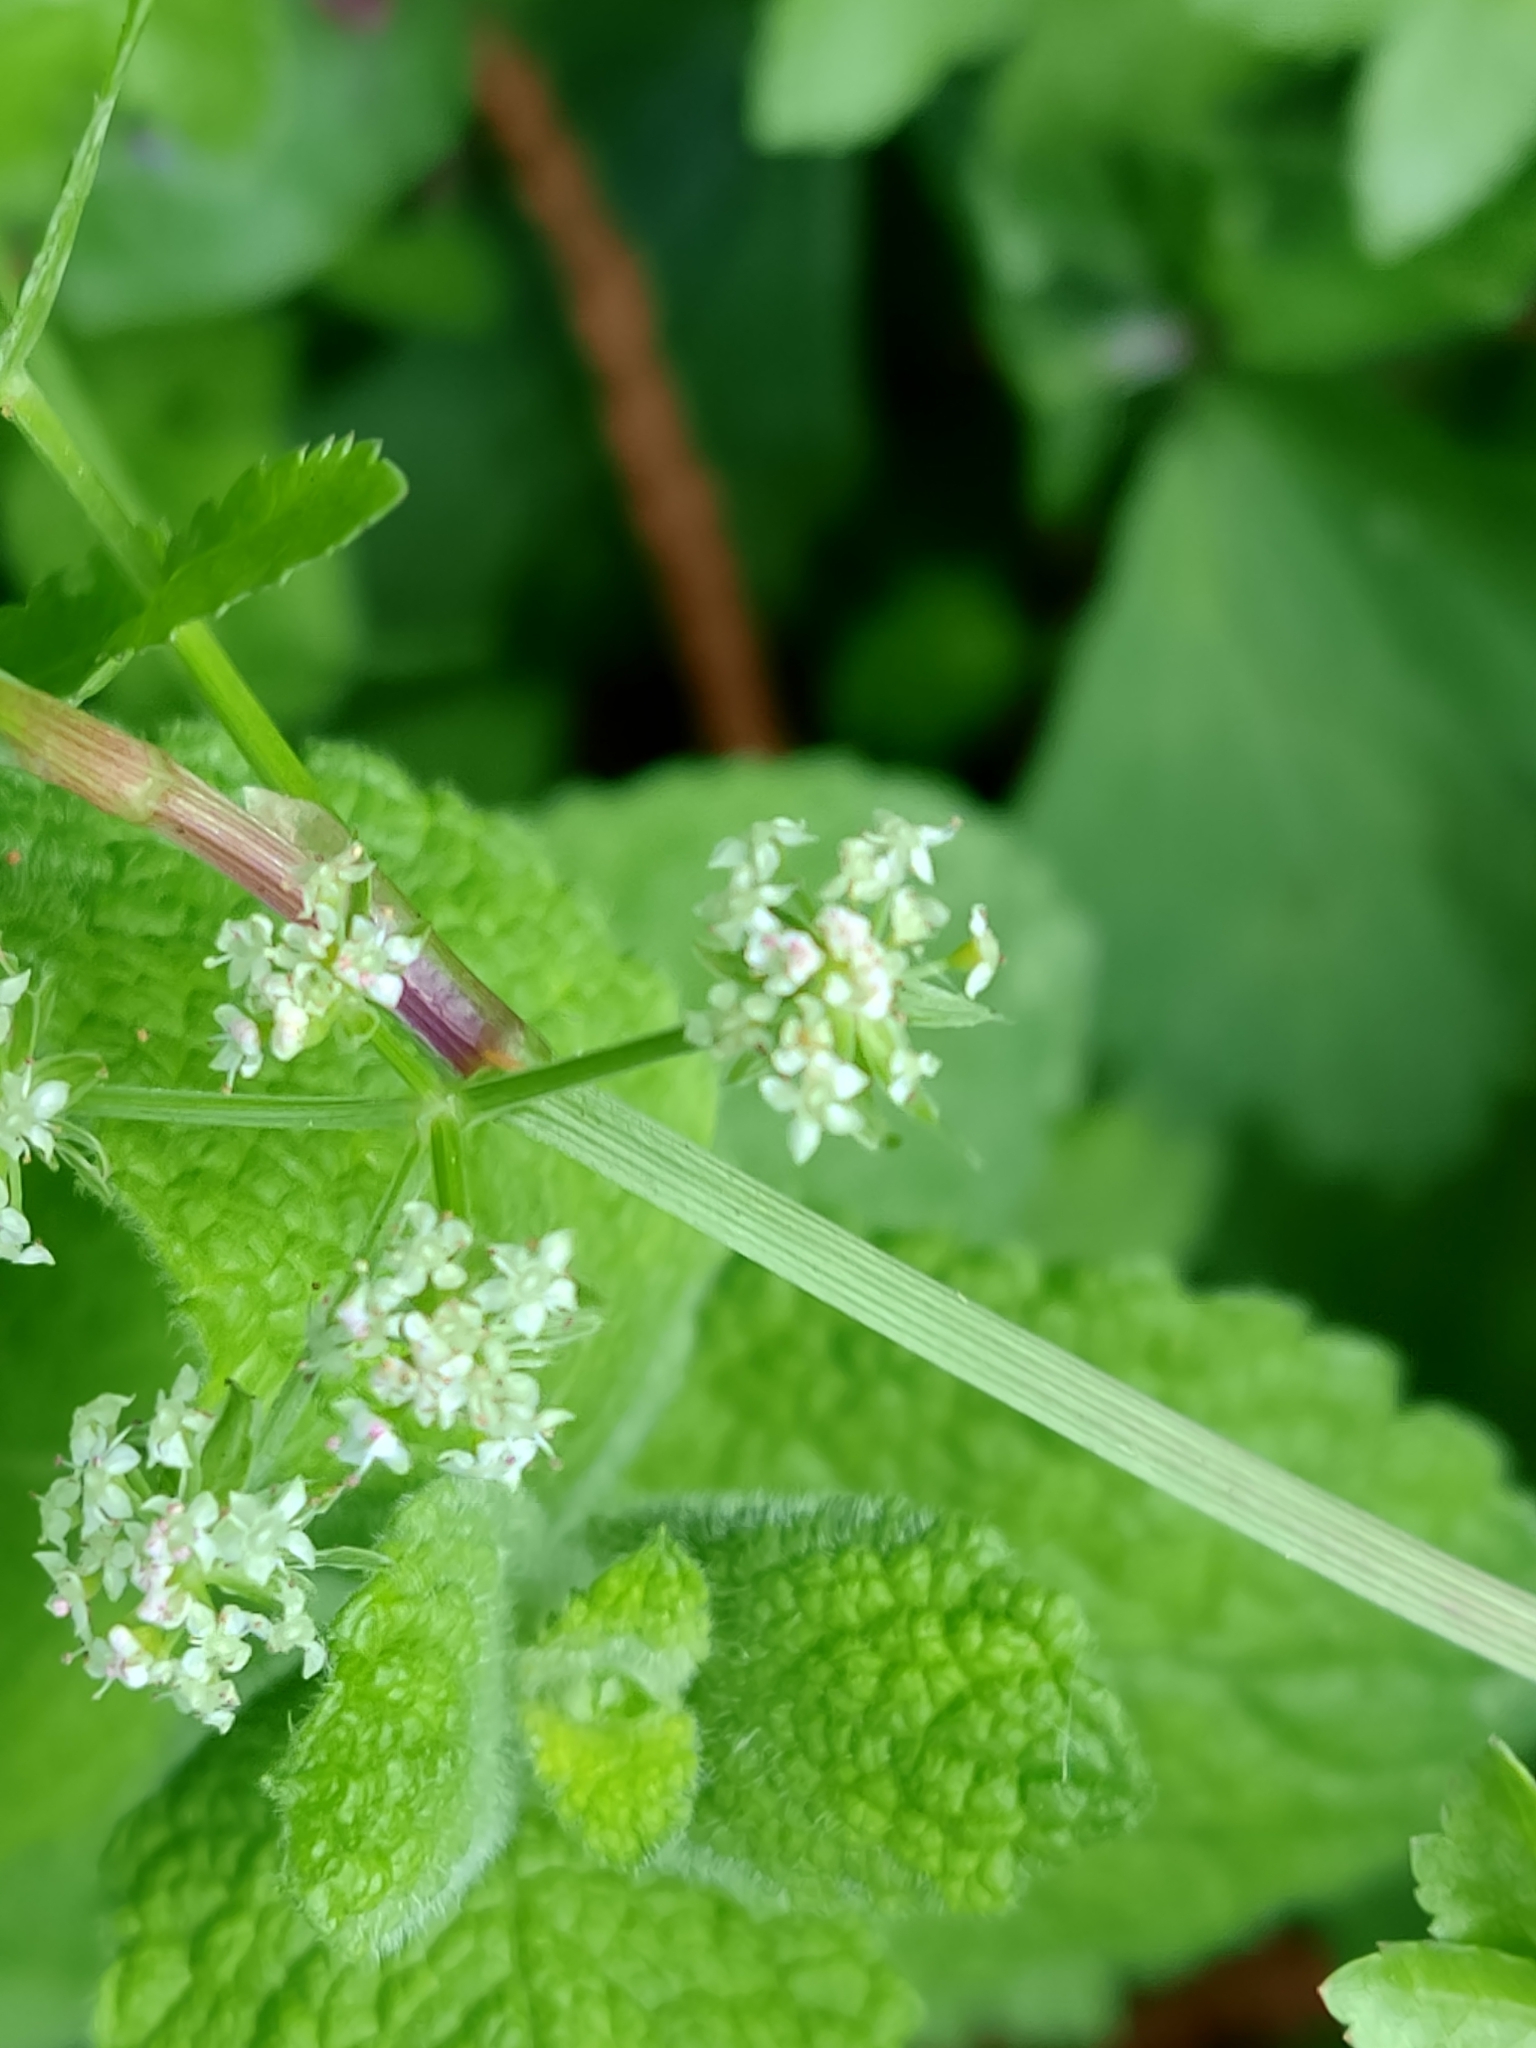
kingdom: Plantae
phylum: Tracheophyta
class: Magnoliopsida
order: Apiales
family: Apiaceae
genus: Helosciadium
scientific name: Helosciadium nodiflorum
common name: Fool's-watercress
